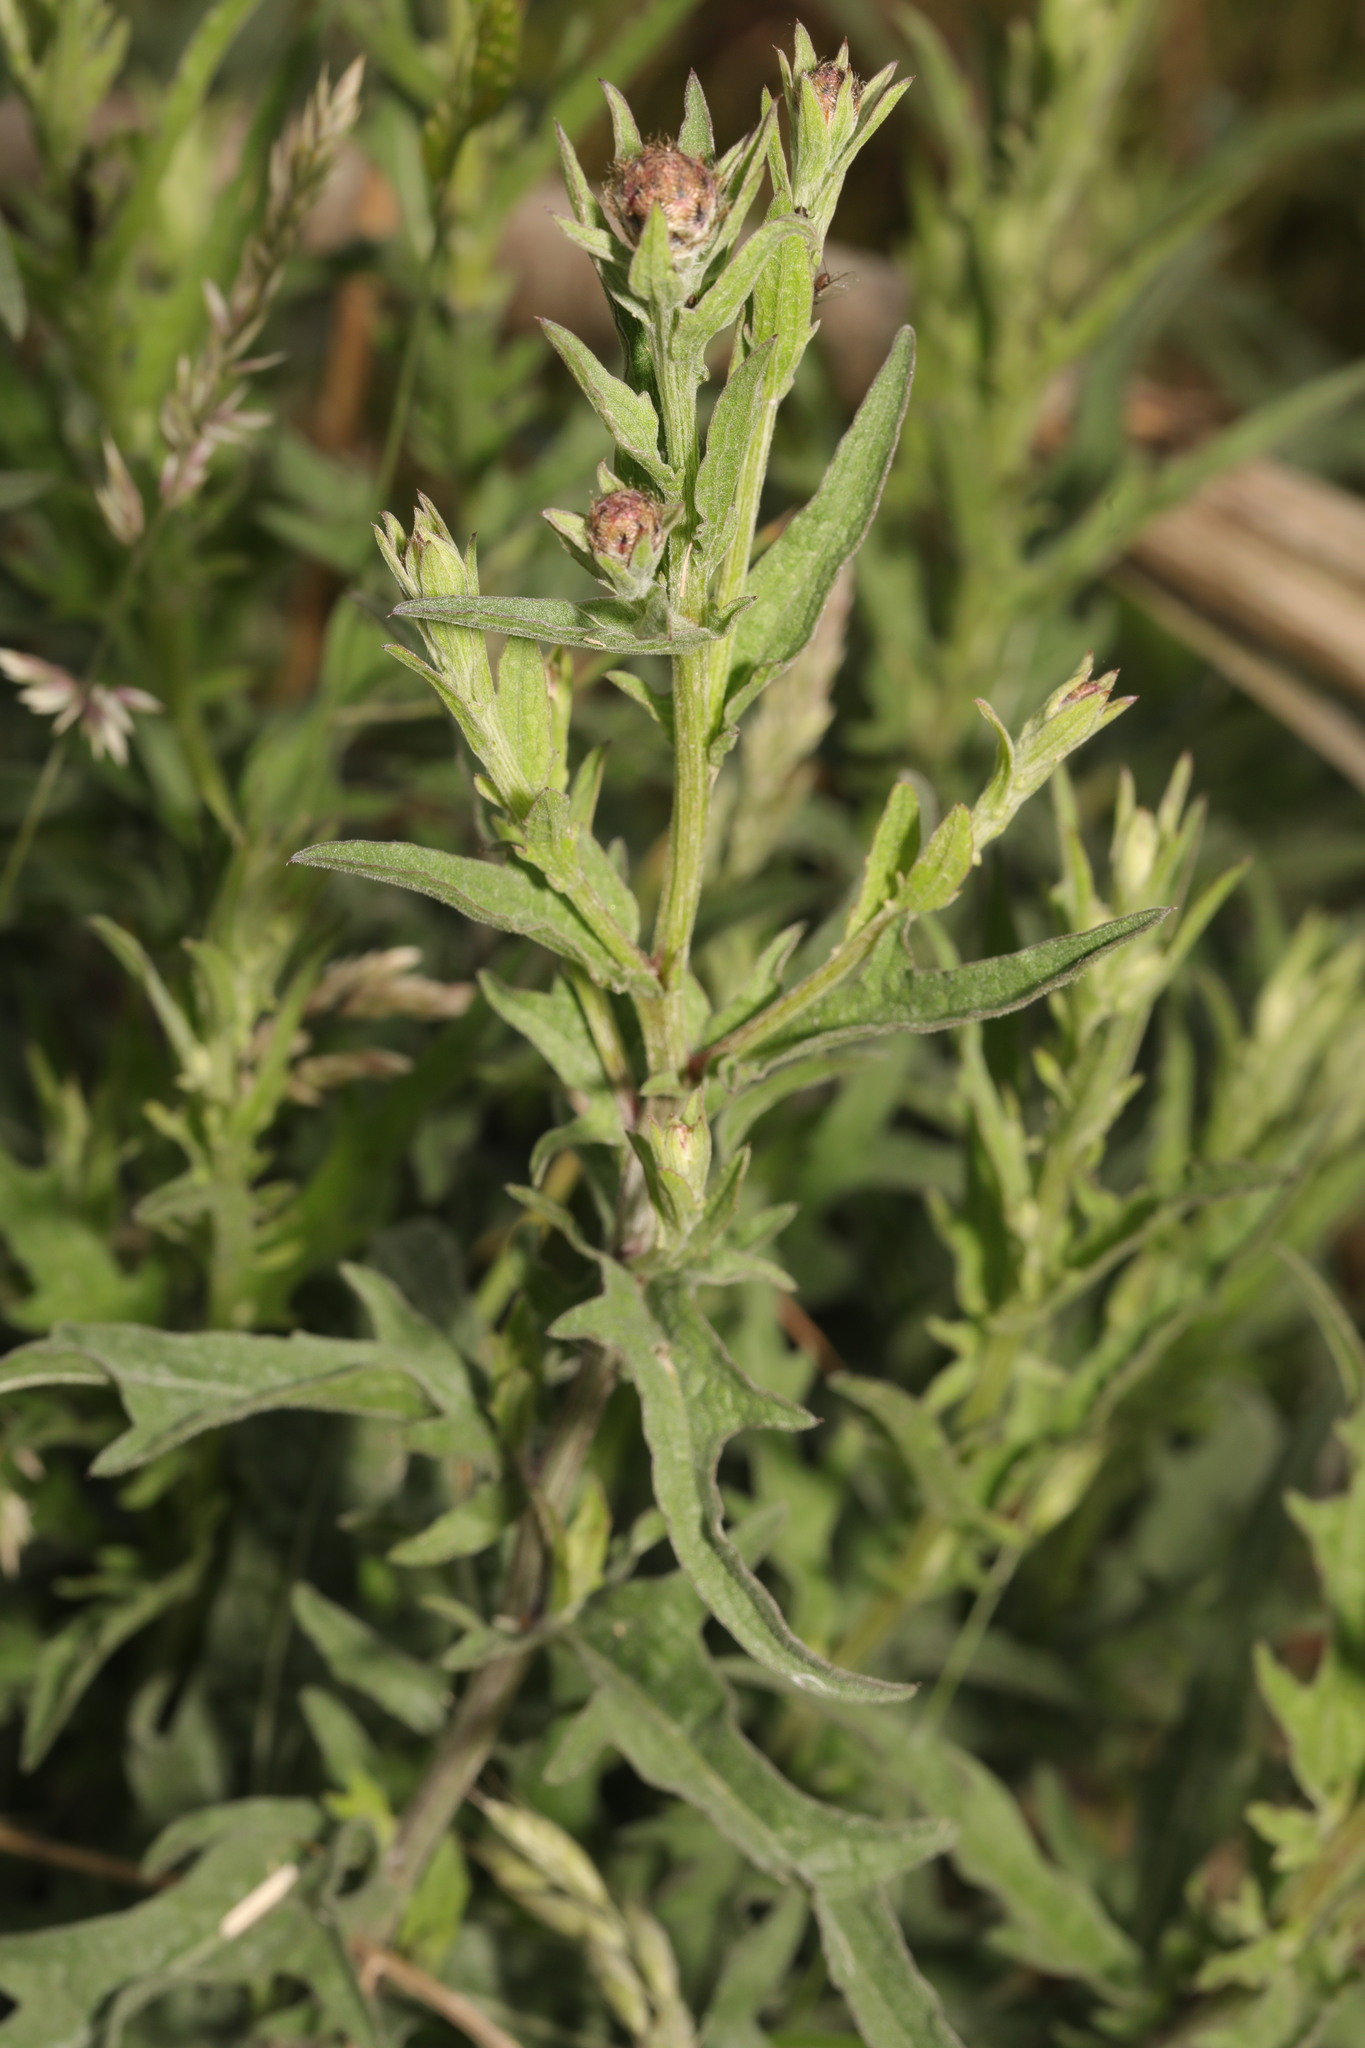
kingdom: Plantae
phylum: Tracheophyta
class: Magnoliopsida
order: Asterales
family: Asteraceae
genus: Centaurea
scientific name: Centaurea nigra
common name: Lesser knapweed
